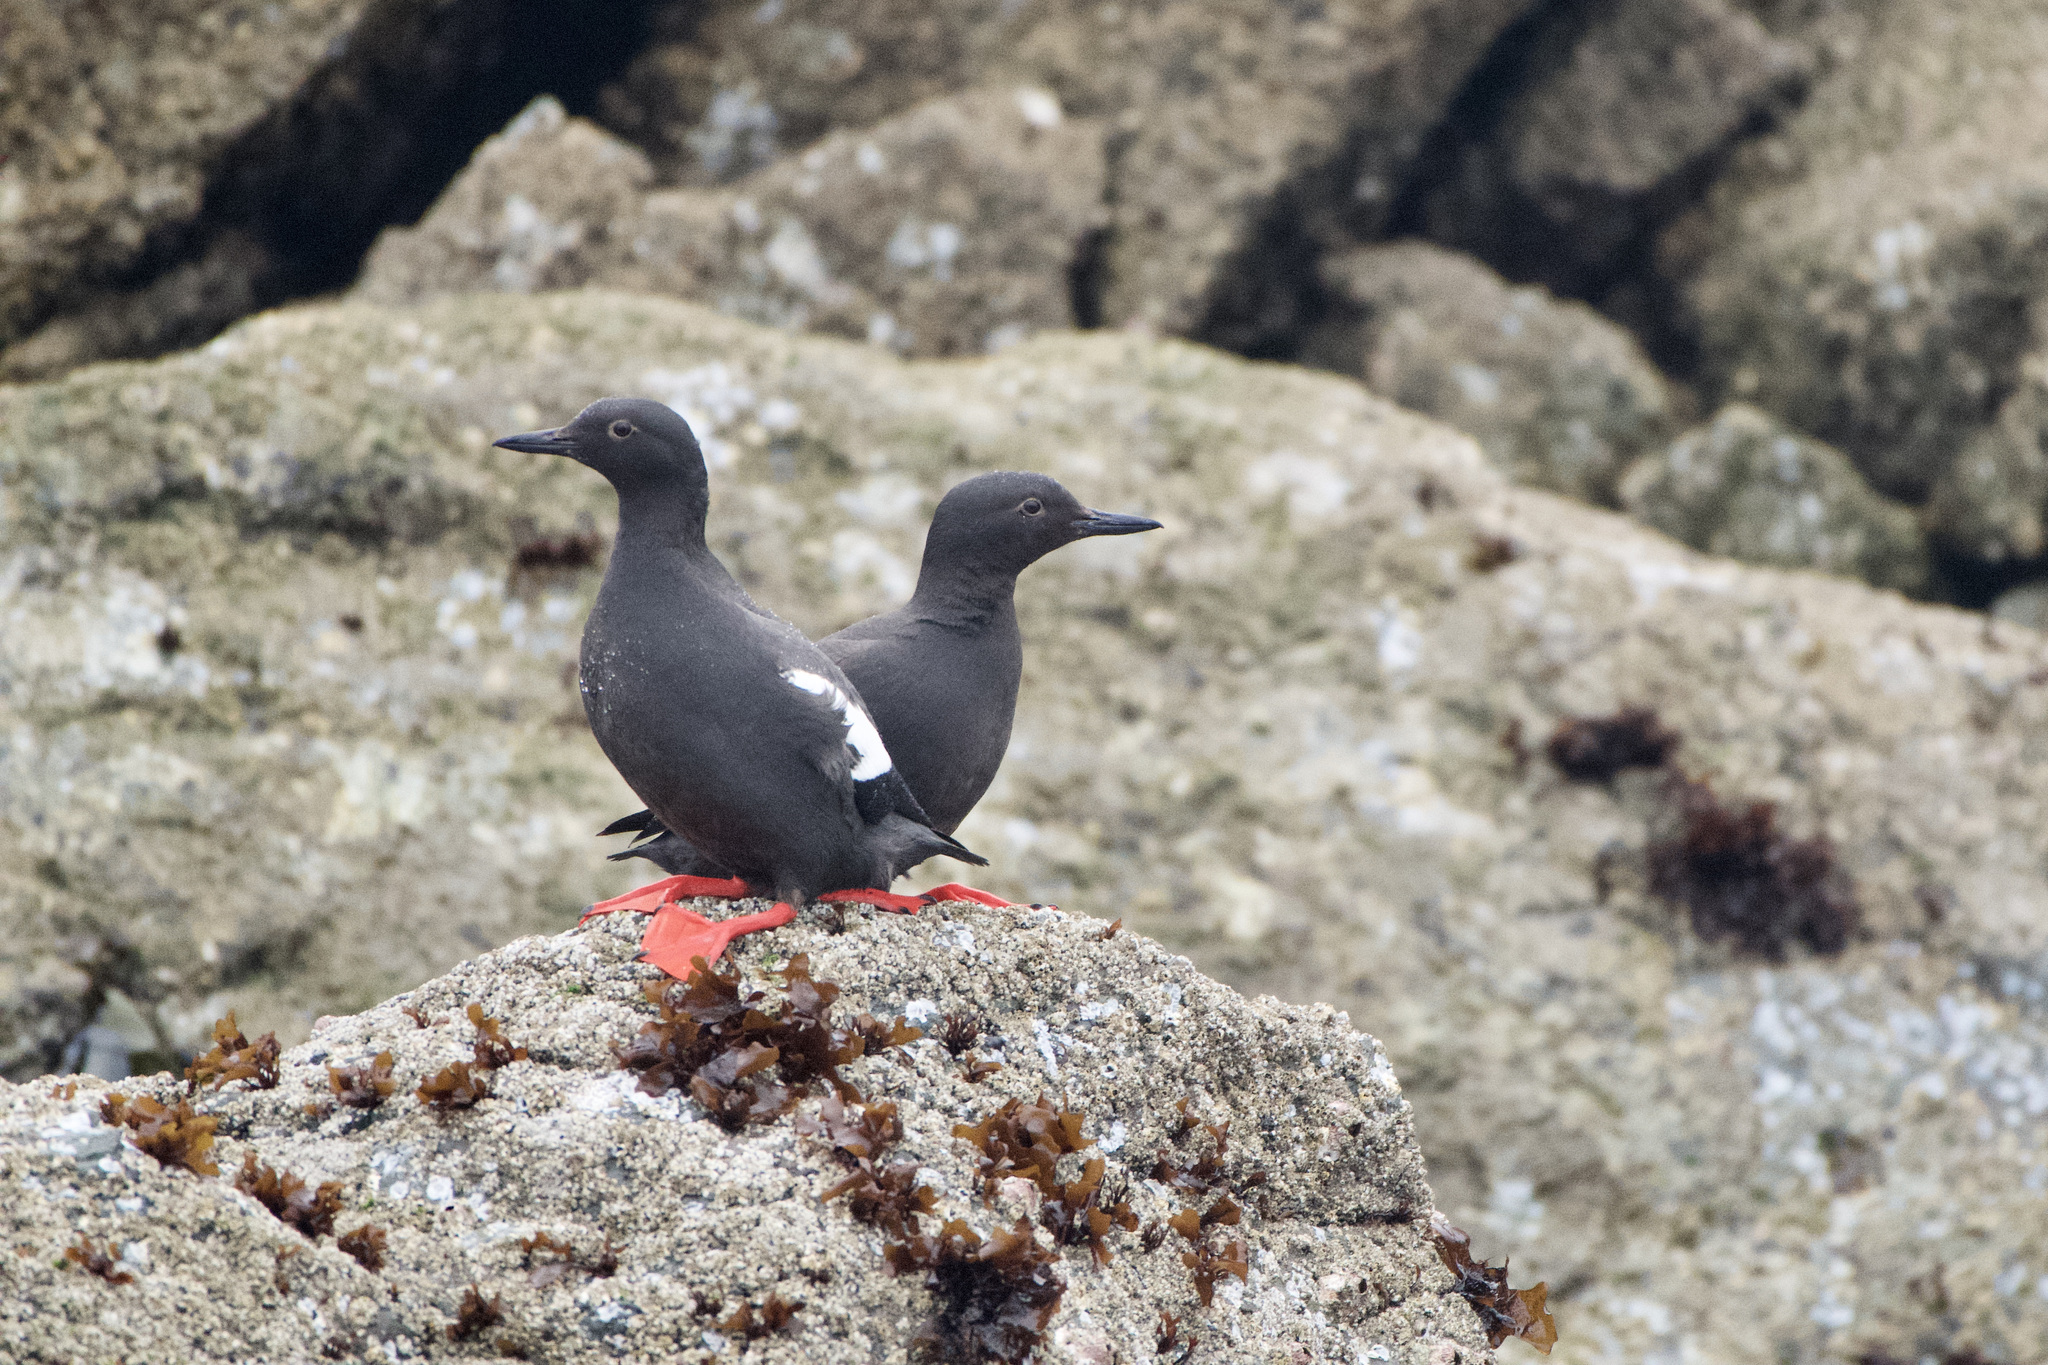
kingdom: Animalia
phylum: Chordata
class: Aves
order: Charadriiformes
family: Alcidae
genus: Cepphus
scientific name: Cepphus columba
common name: Pigeon guillemot
